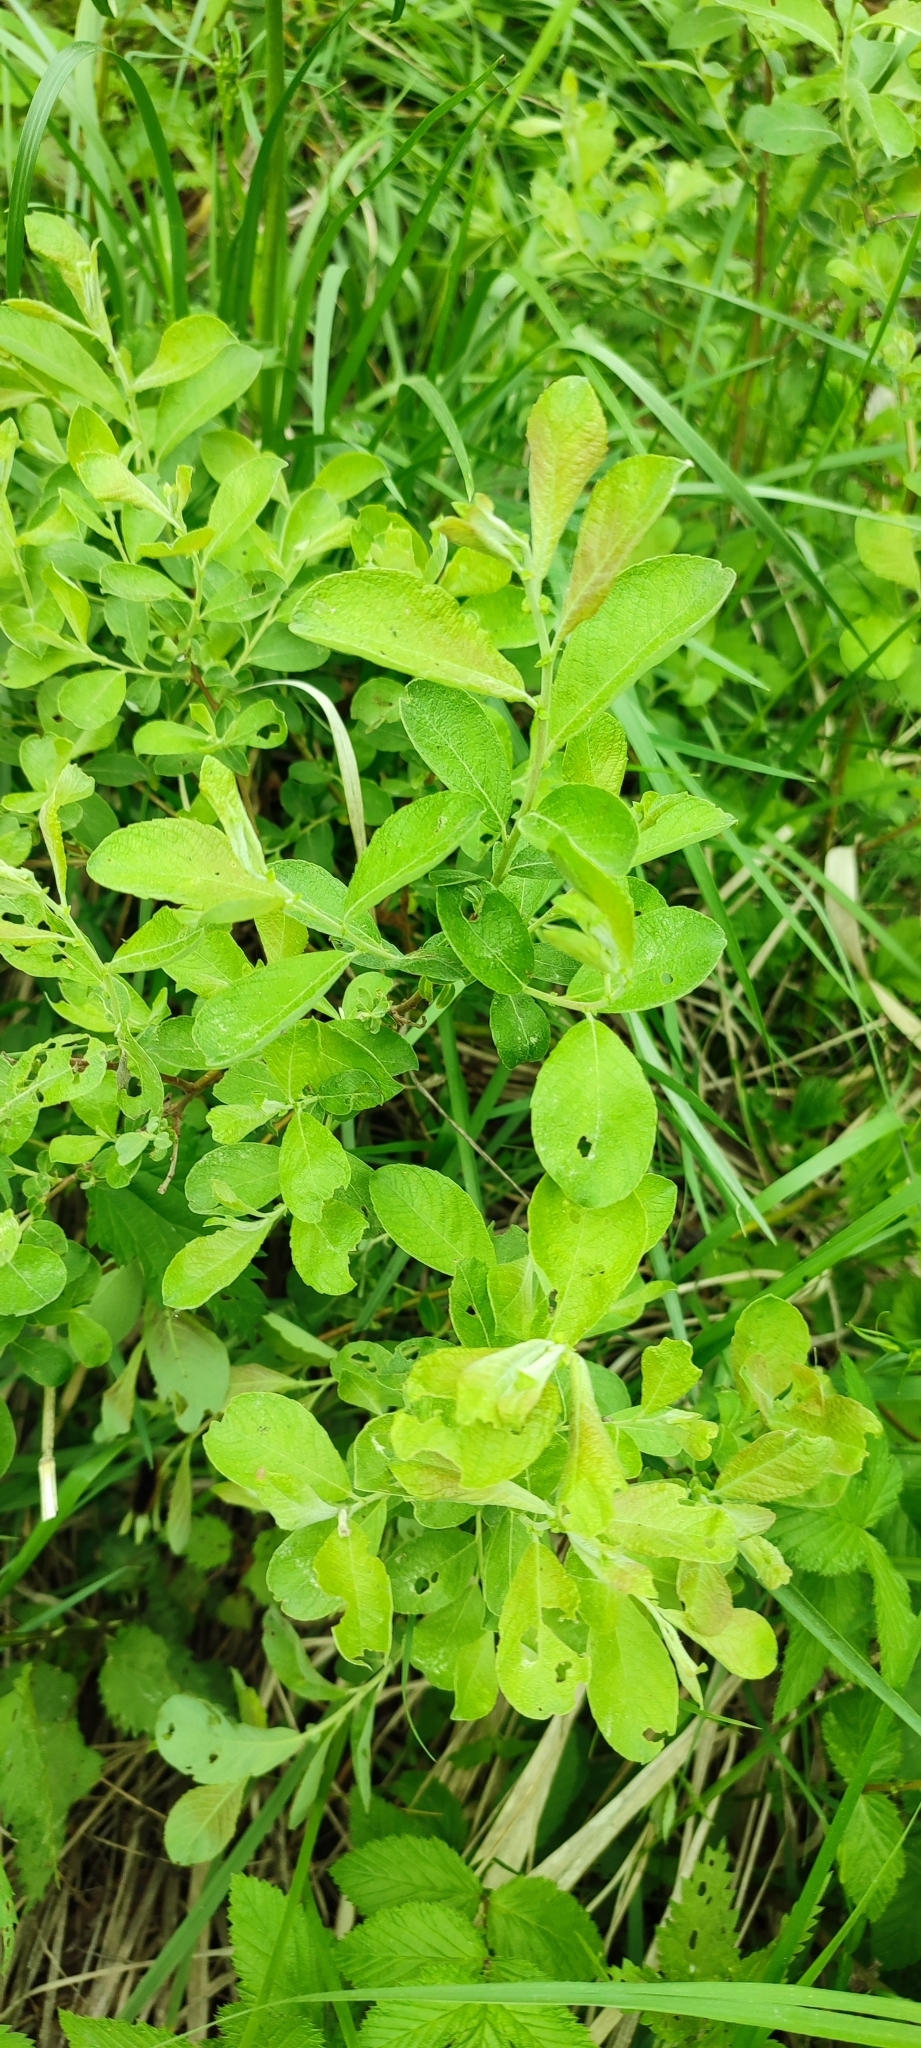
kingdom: Plantae
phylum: Tracheophyta
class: Magnoliopsida
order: Malpighiales
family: Salicaceae
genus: Salix
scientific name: Salix cinerea
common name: Common sallow
